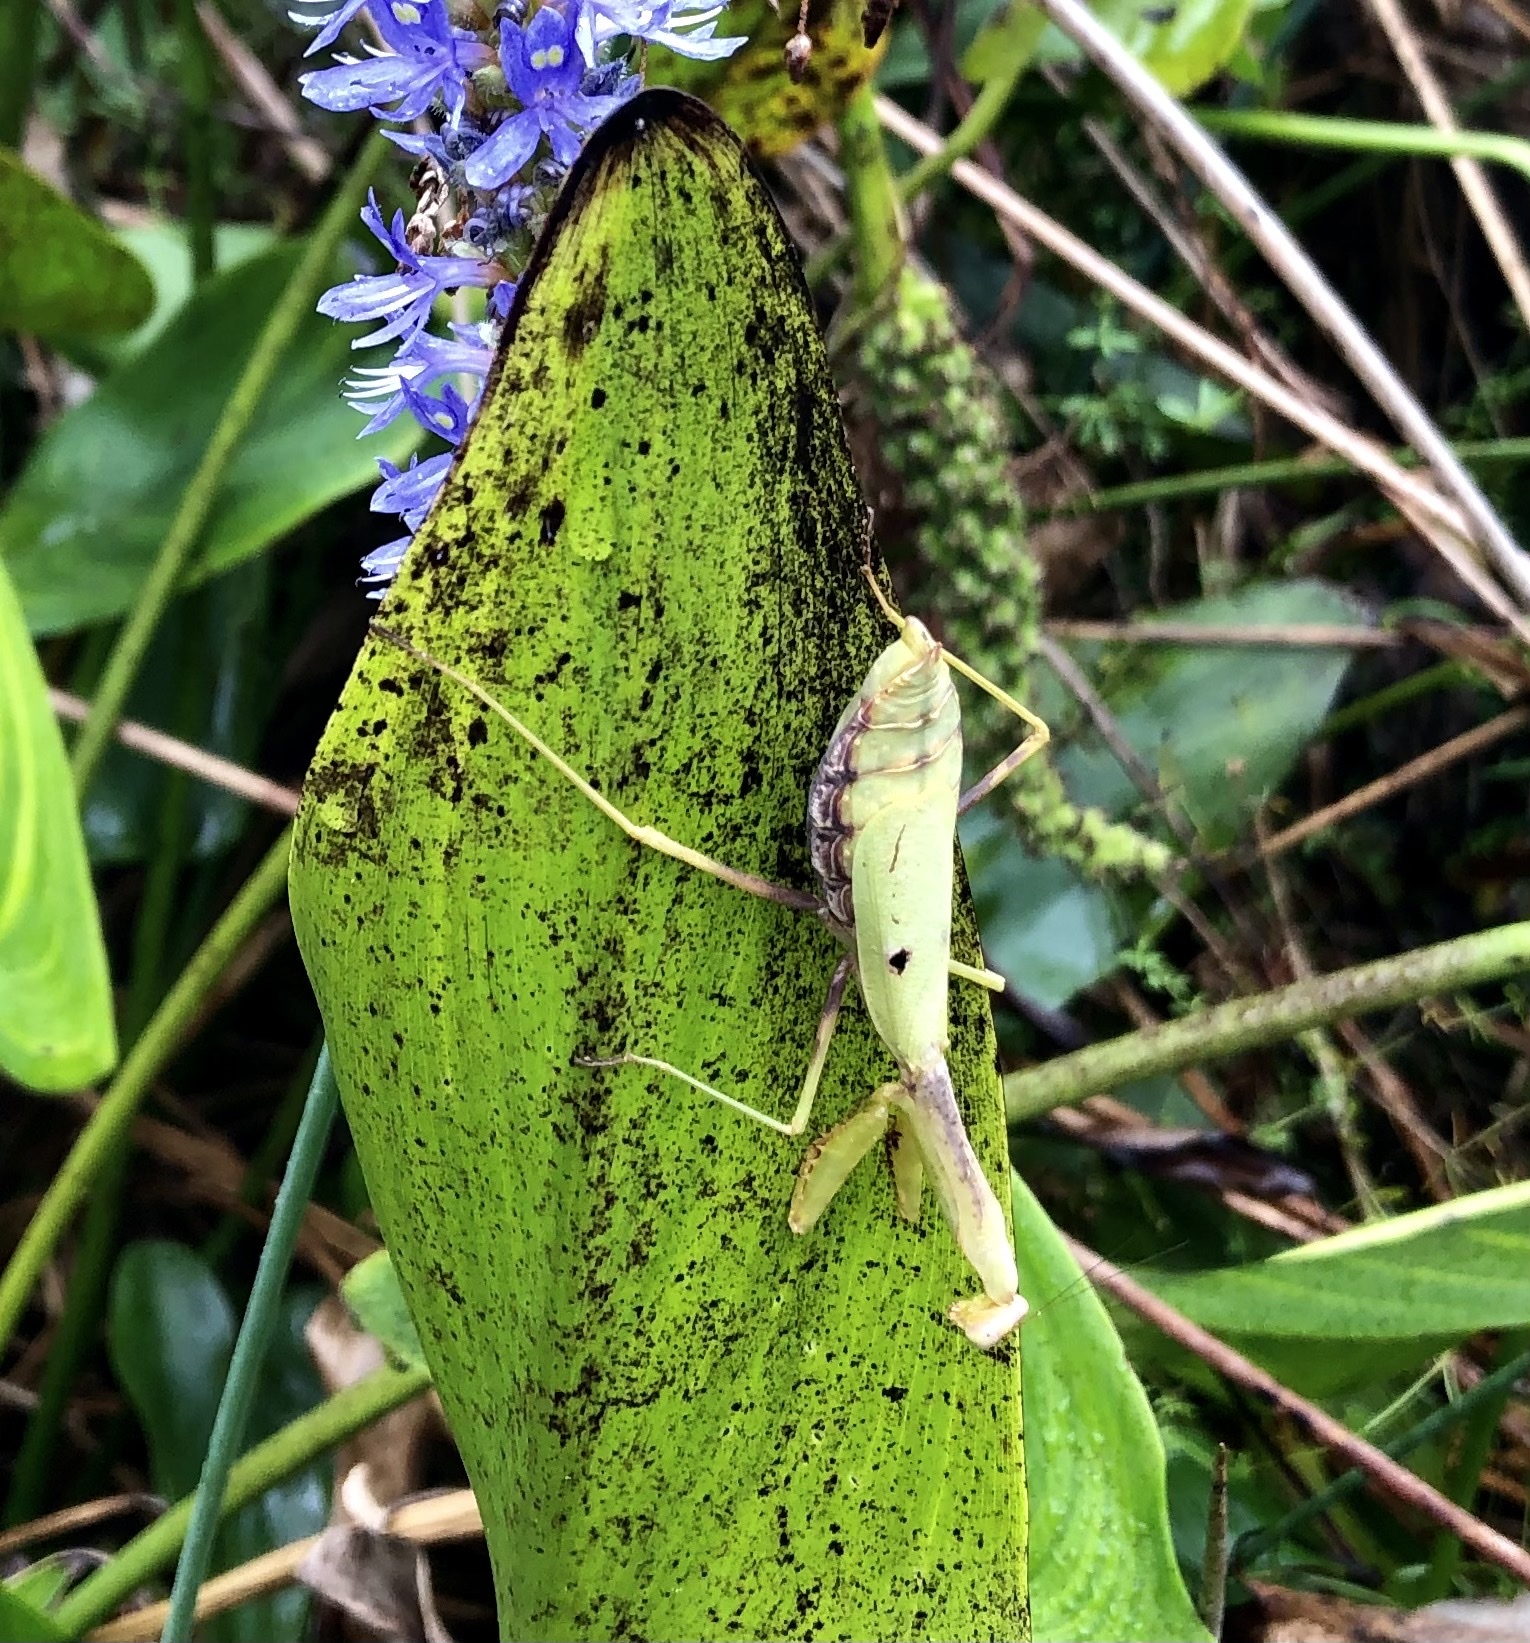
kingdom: Animalia
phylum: Arthropoda
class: Insecta
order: Mantodea
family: Mantidae
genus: Stagmomantis
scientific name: Stagmomantis carolina
